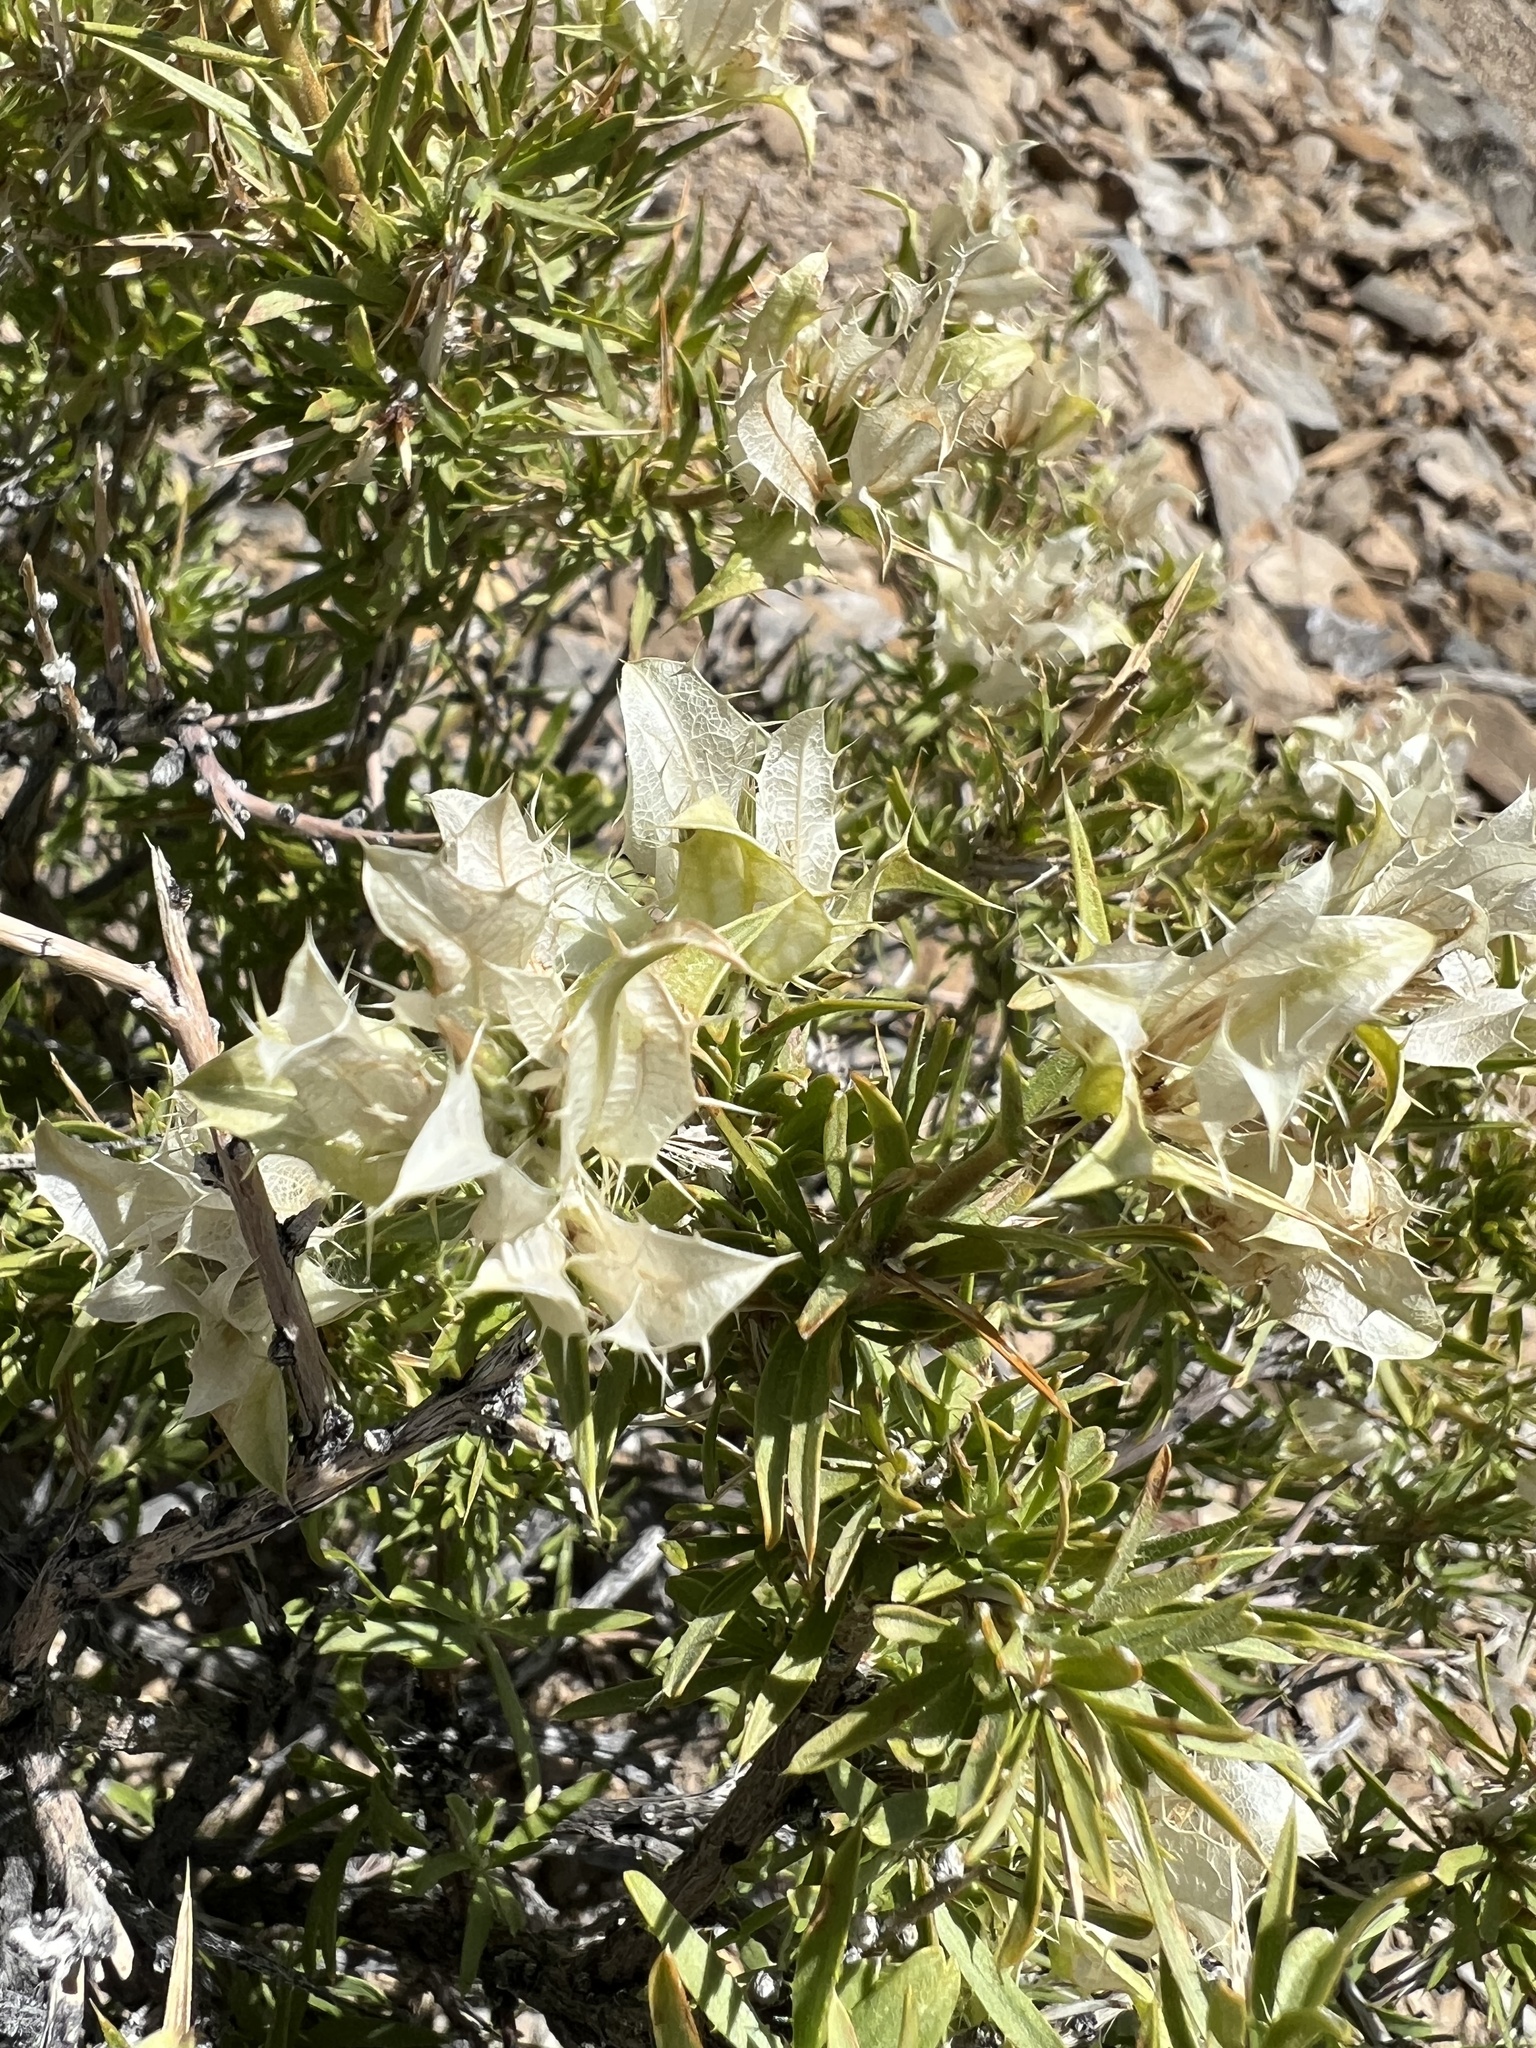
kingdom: Plantae
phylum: Tracheophyta
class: Magnoliopsida
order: Asterales
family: Asteraceae
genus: Hecastocleis
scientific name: Hecastocleis shockleyi
